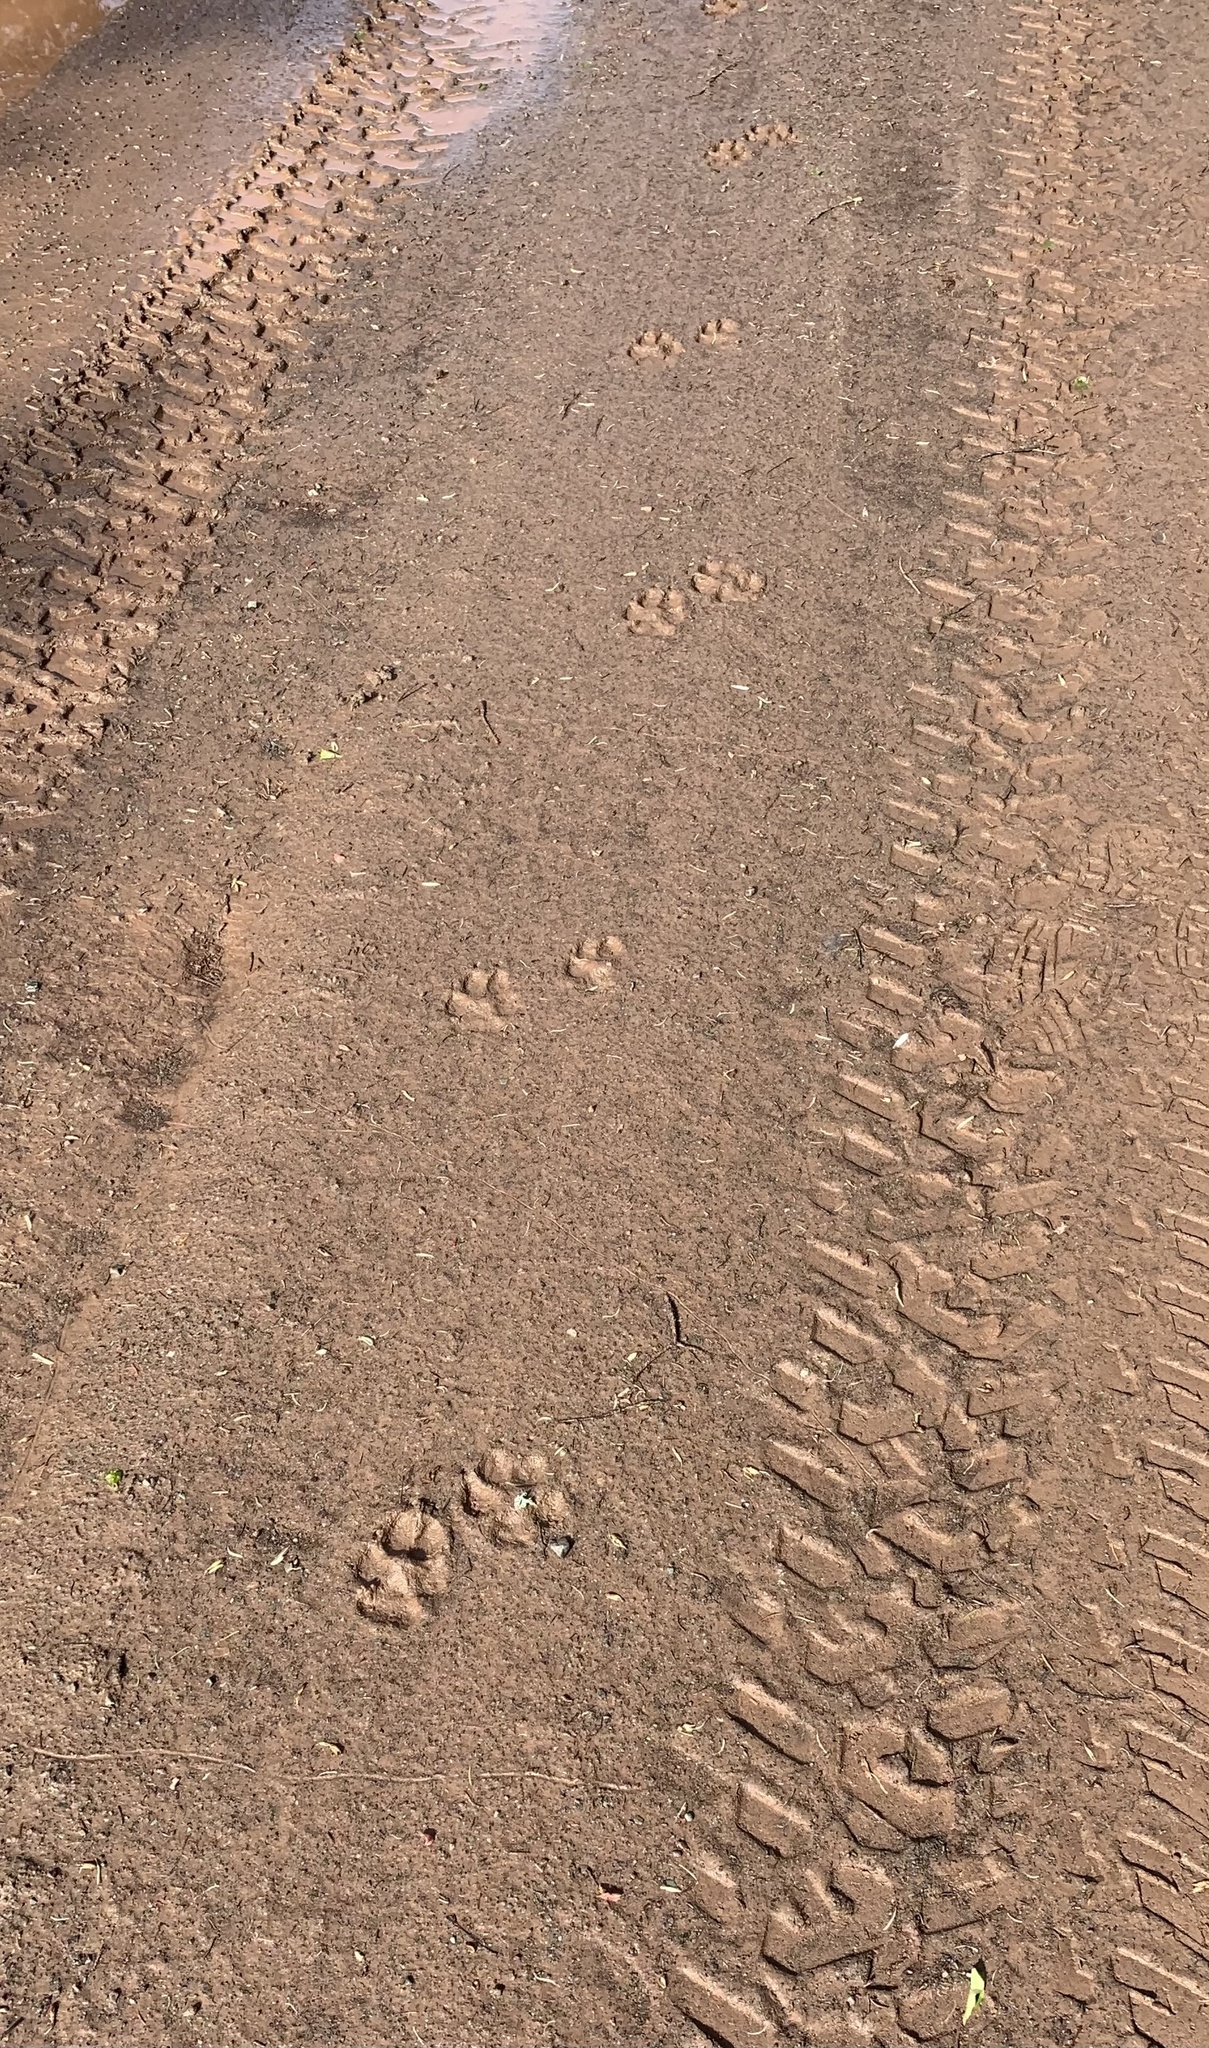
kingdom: Animalia
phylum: Chordata
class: Mammalia
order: Carnivora
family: Canidae
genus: Canis
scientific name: Canis latrans
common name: Coyote
